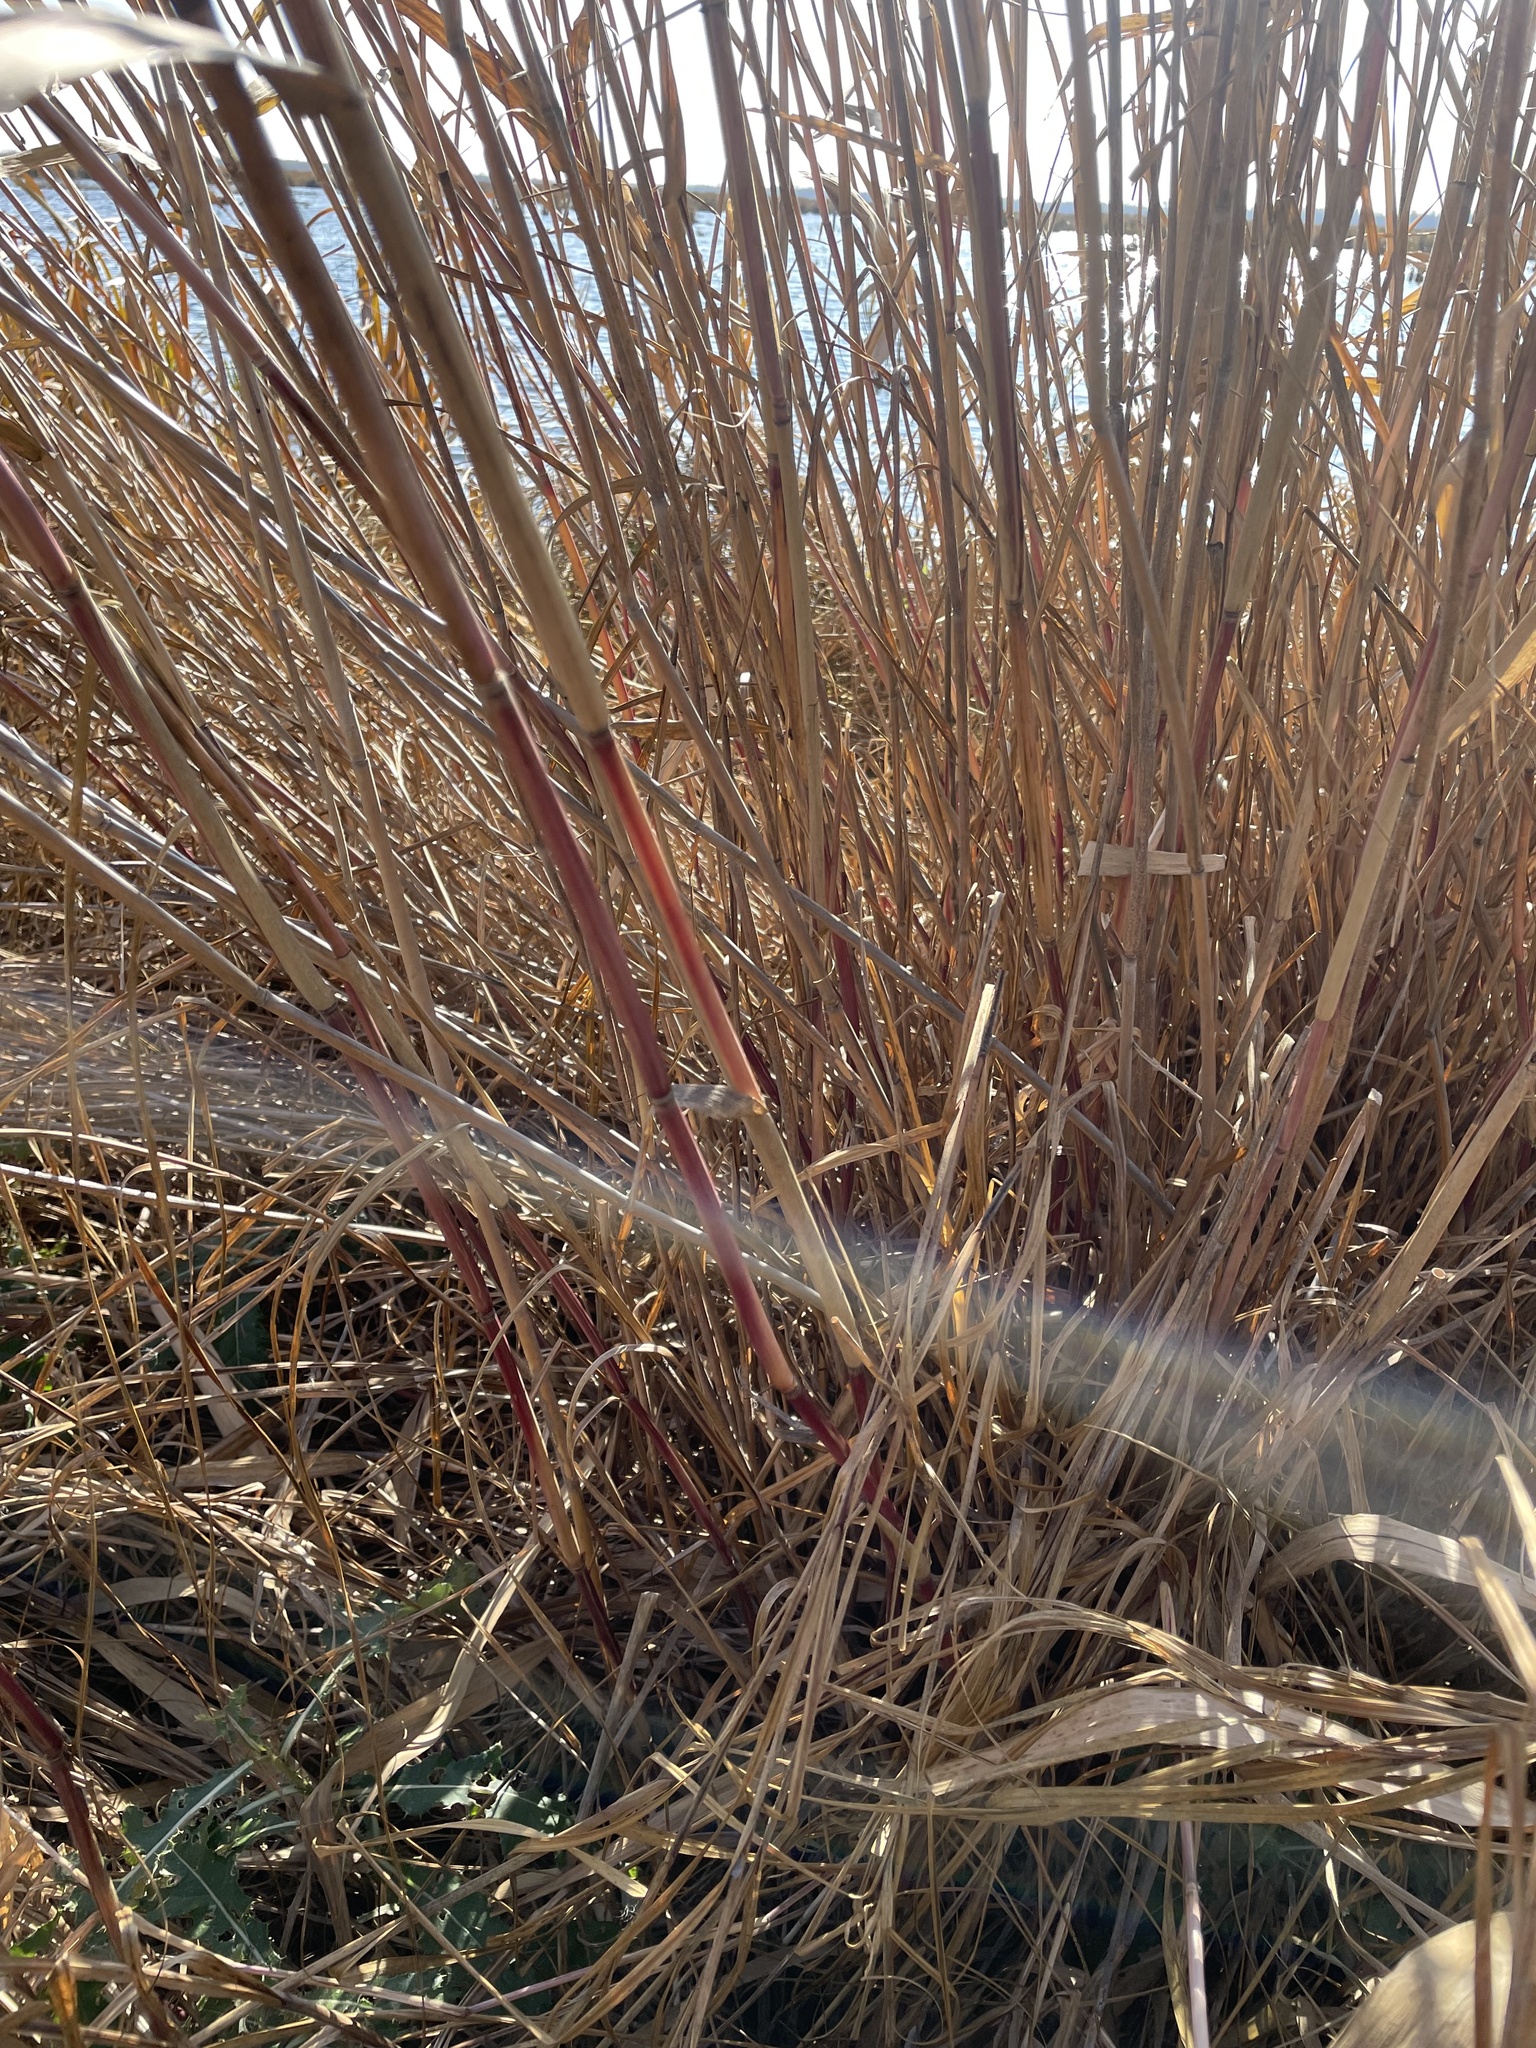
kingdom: Plantae
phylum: Tracheophyta
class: Liliopsida
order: Poales
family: Poaceae
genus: Phragmites
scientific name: Phragmites australis
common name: Common reed
